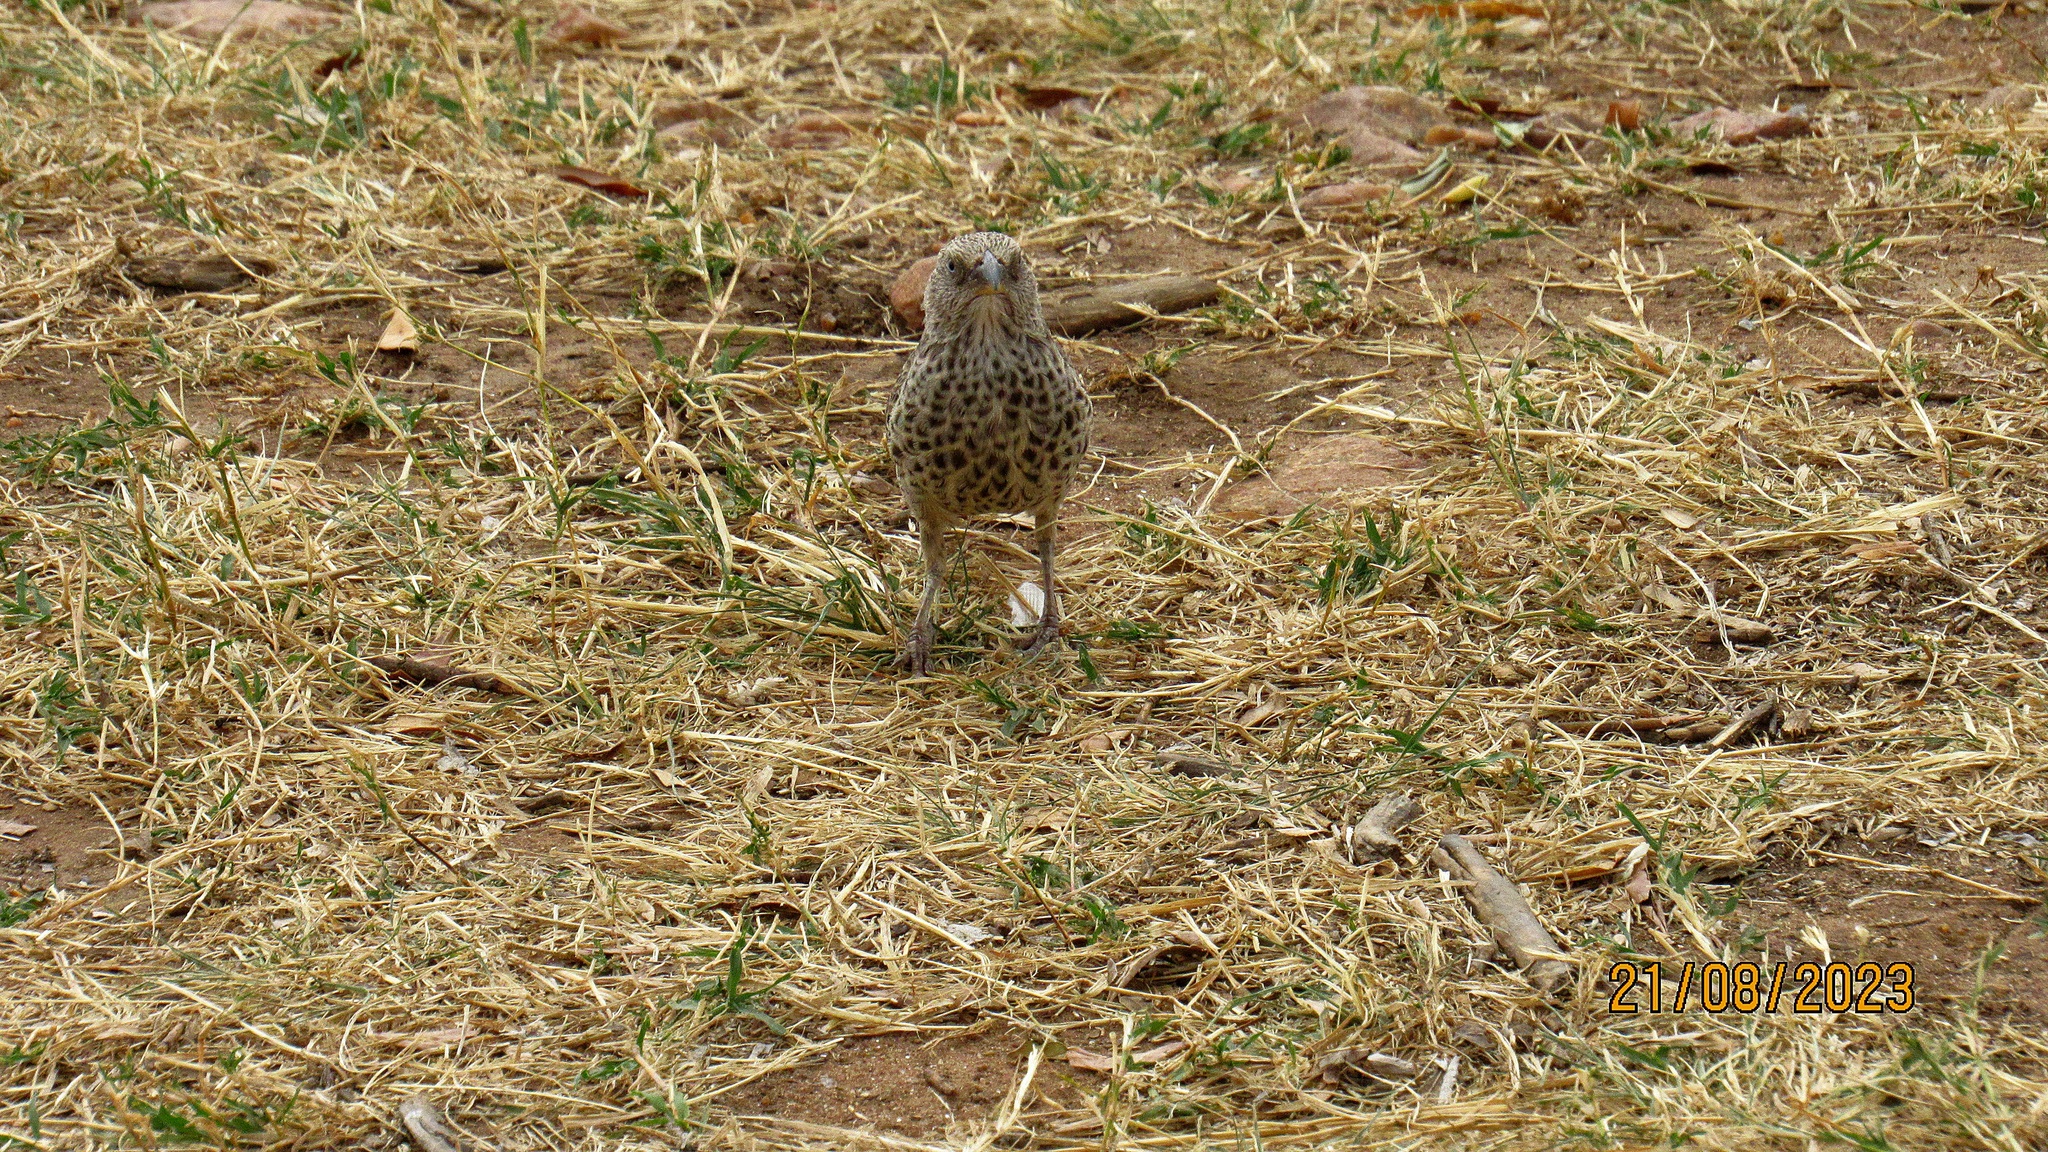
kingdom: Animalia
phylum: Chordata
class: Aves
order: Passeriformes
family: Passeridae
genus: Histurgops
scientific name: Histurgops ruficauda
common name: Rufous-tailed weaver
